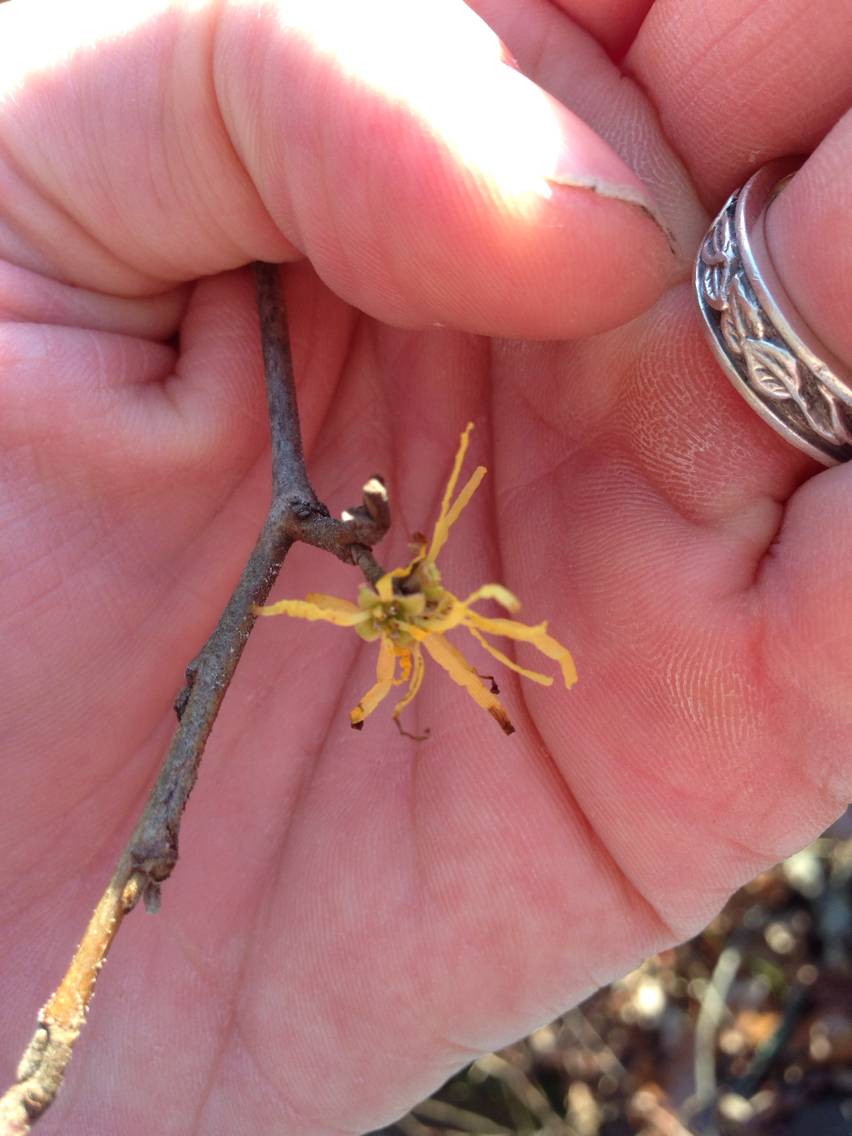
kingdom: Plantae
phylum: Tracheophyta
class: Magnoliopsida
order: Saxifragales
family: Hamamelidaceae
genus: Hamamelis
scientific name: Hamamelis virginiana
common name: Witch-hazel
